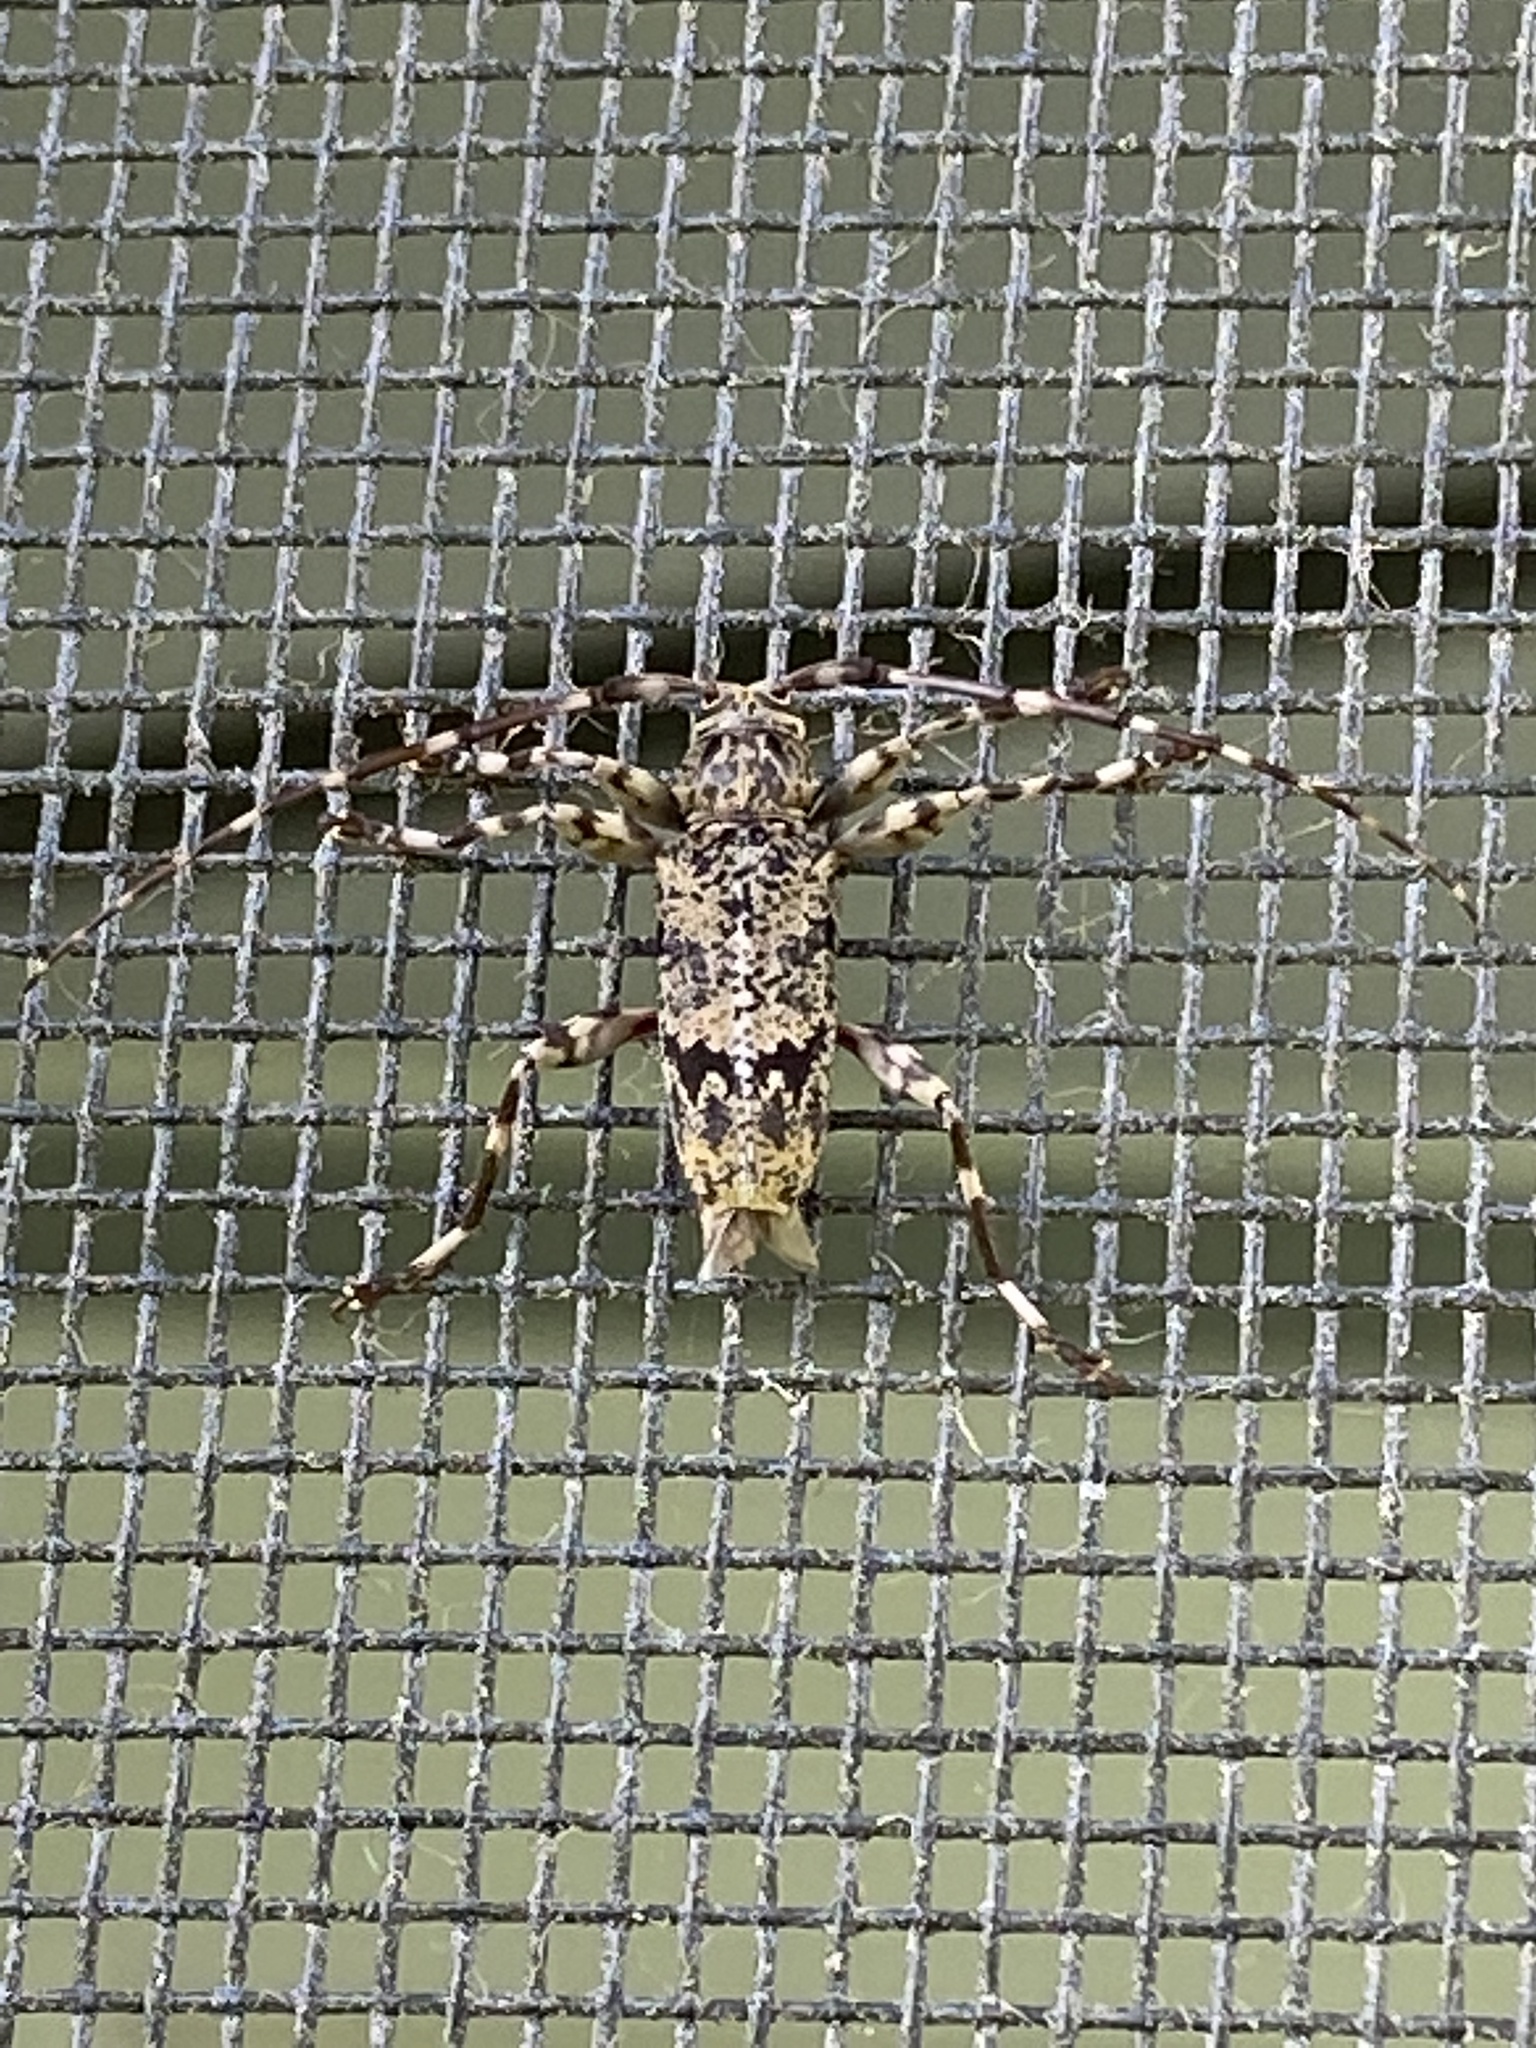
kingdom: Animalia
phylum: Arthropoda
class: Insecta
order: Coleoptera
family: Cerambycidae
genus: Graphisurus
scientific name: Graphisurus fasciatus
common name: Banded graphisurus
